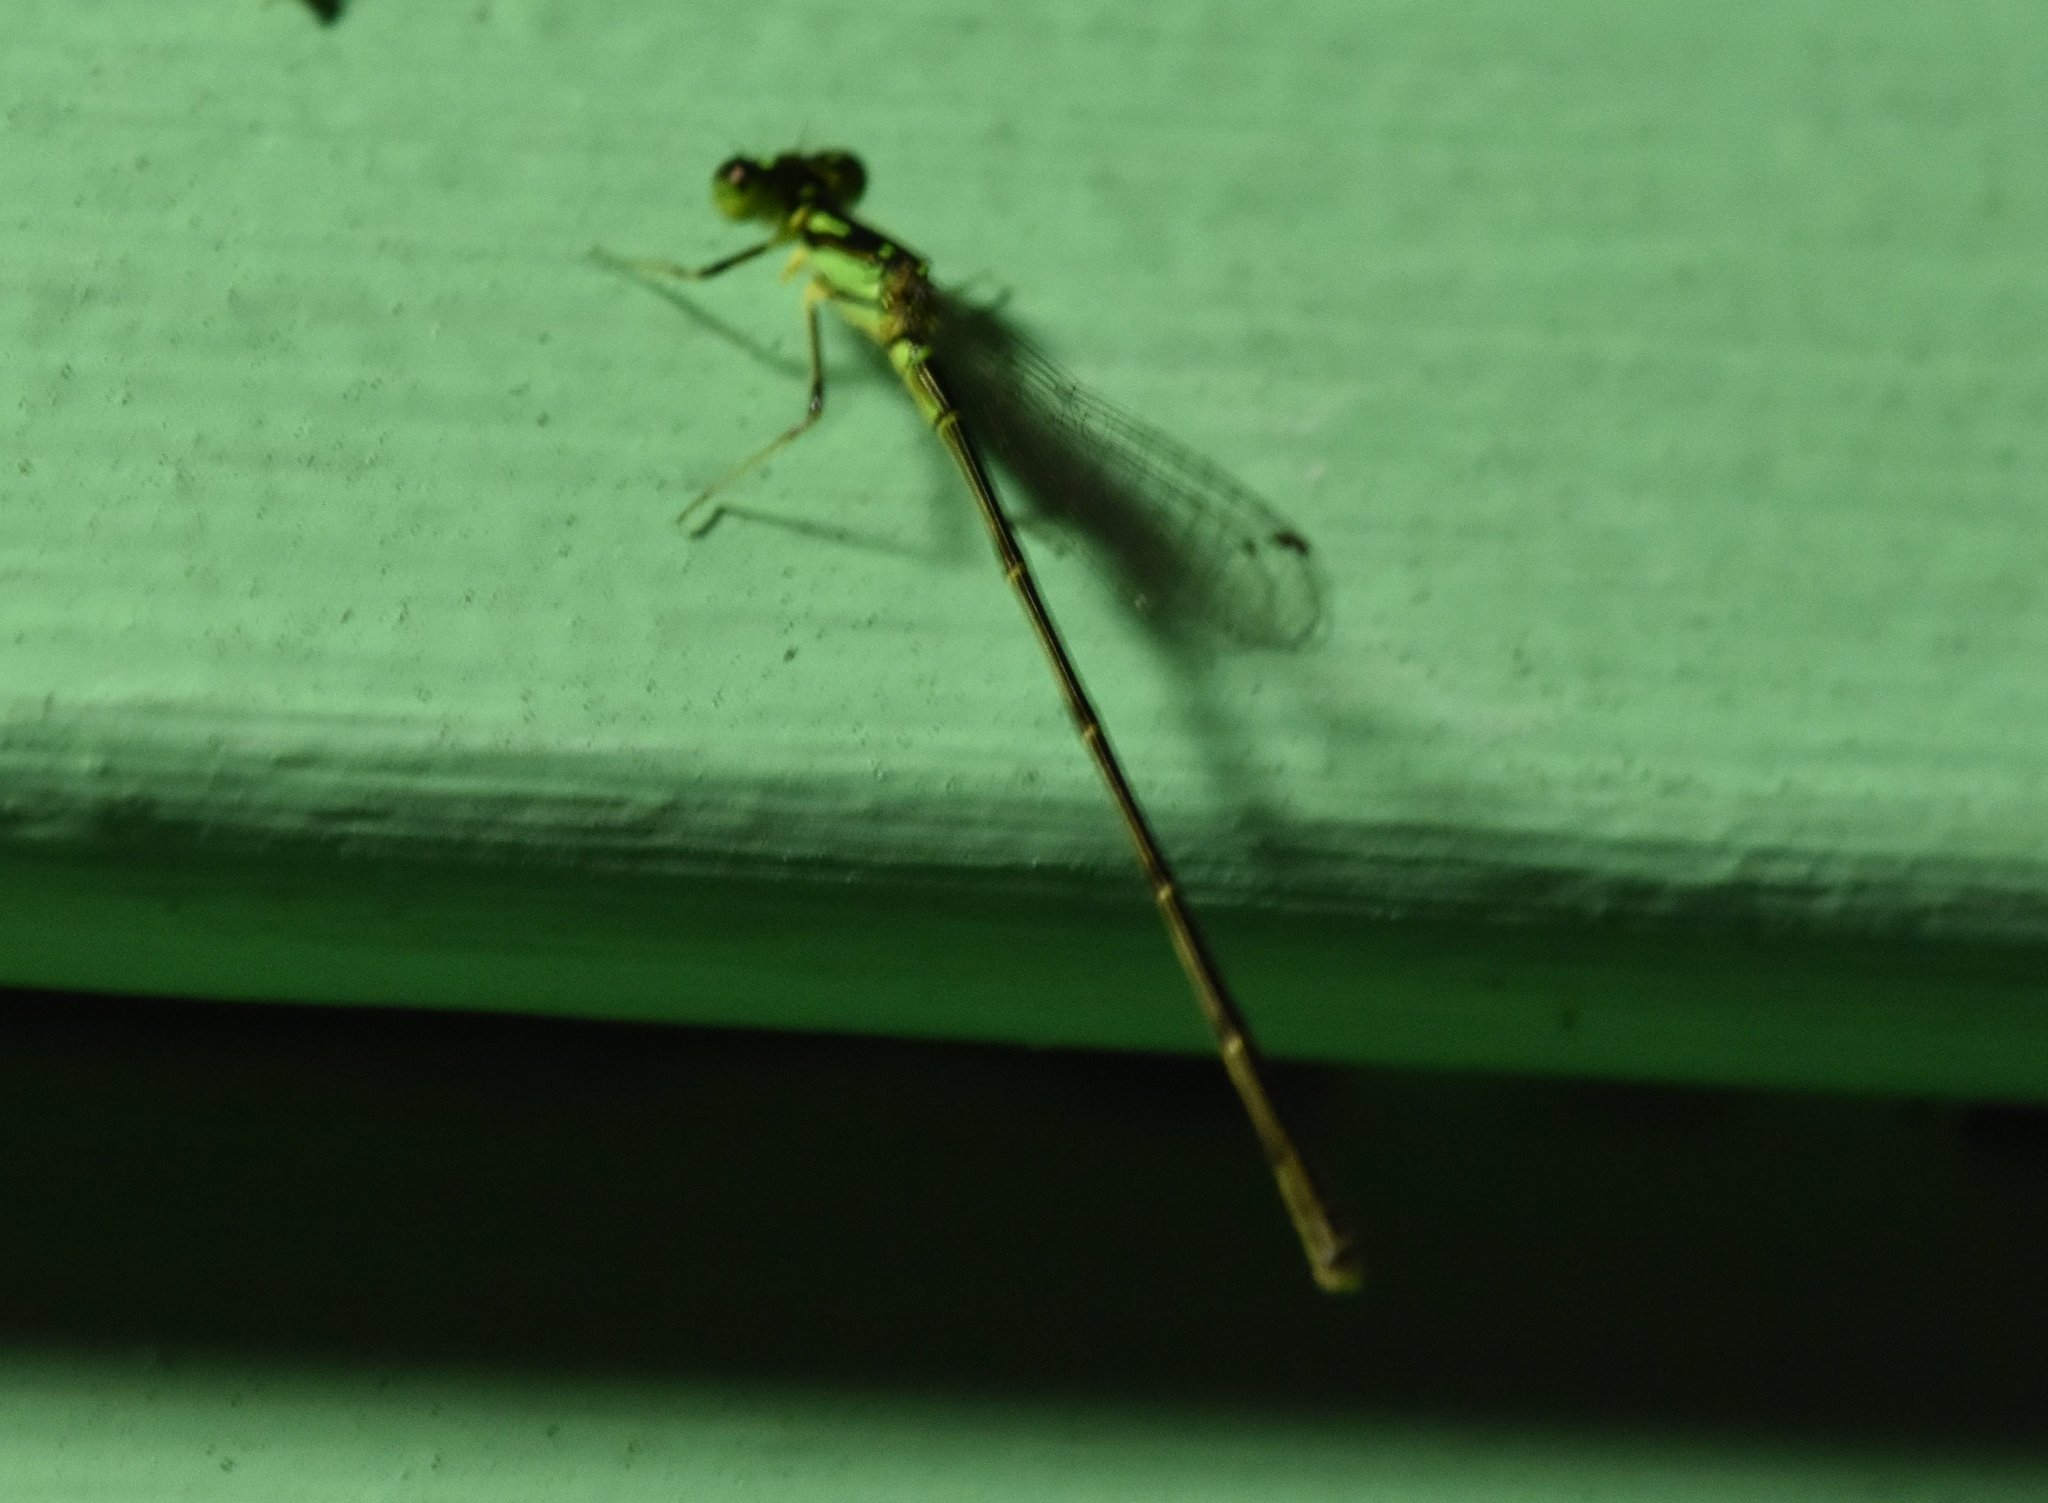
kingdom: Animalia
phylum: Arthropoda
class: Insecta
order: Odonata
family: Coenagrionidae
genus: Ischnura
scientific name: Ischnura posita
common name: Fragile forktail
